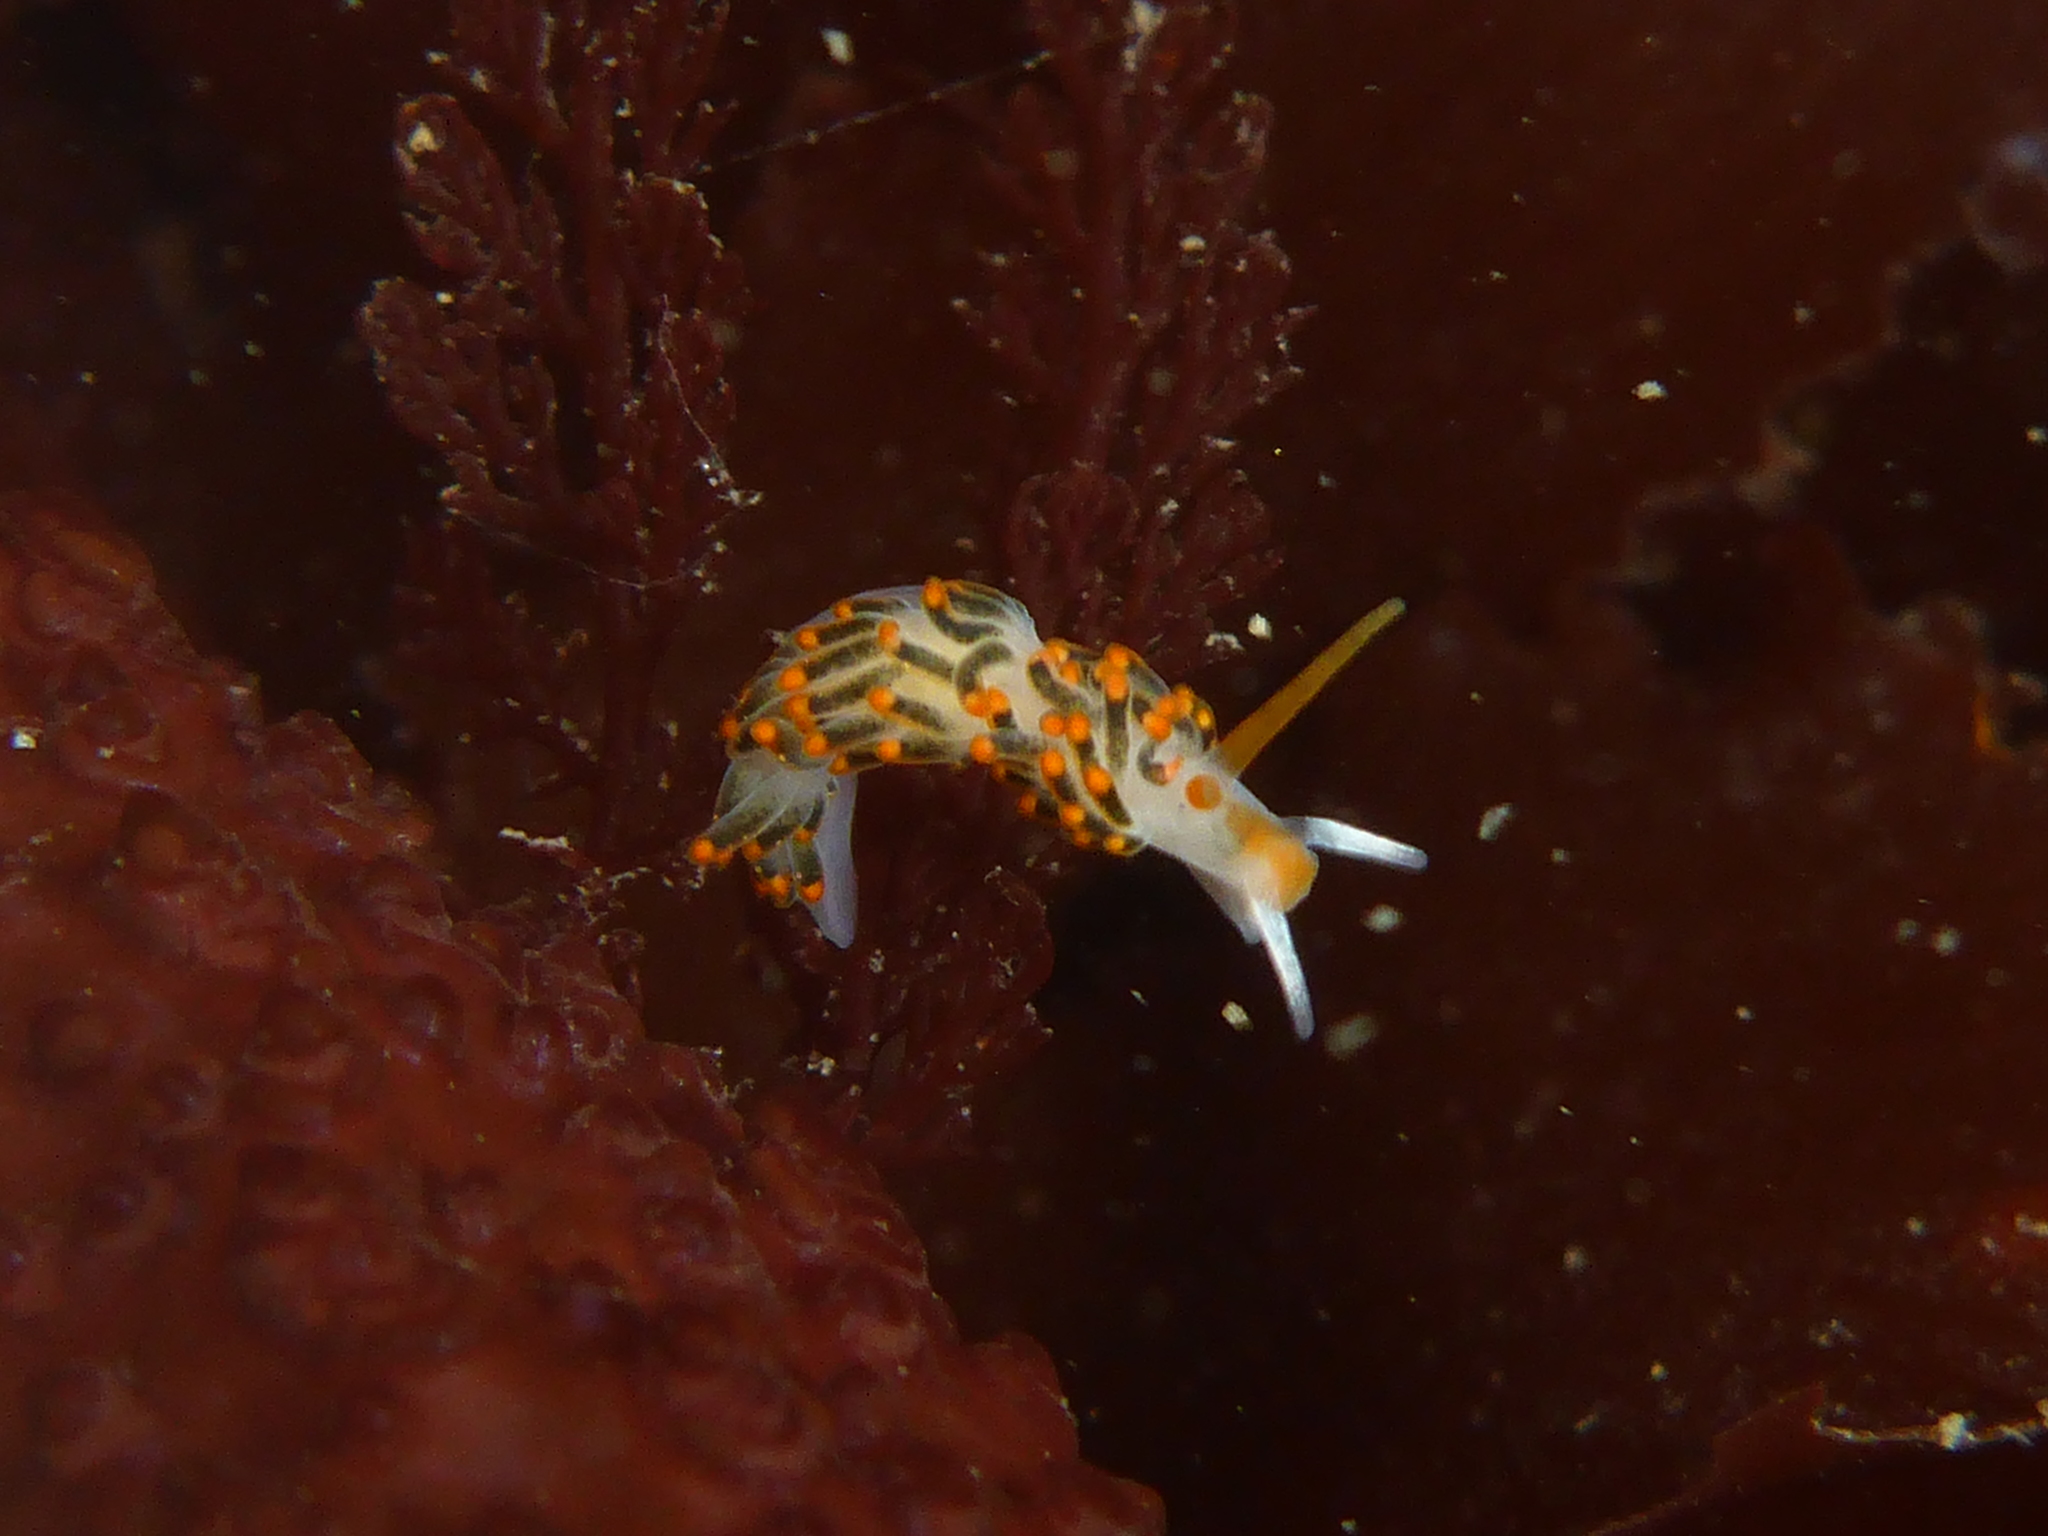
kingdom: Animalia
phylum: Mollusca
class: Gastropoda
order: Nudibranchia
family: Trinchesiidae
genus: Diaphoreolis
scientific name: Diaphoreolis lagunae
